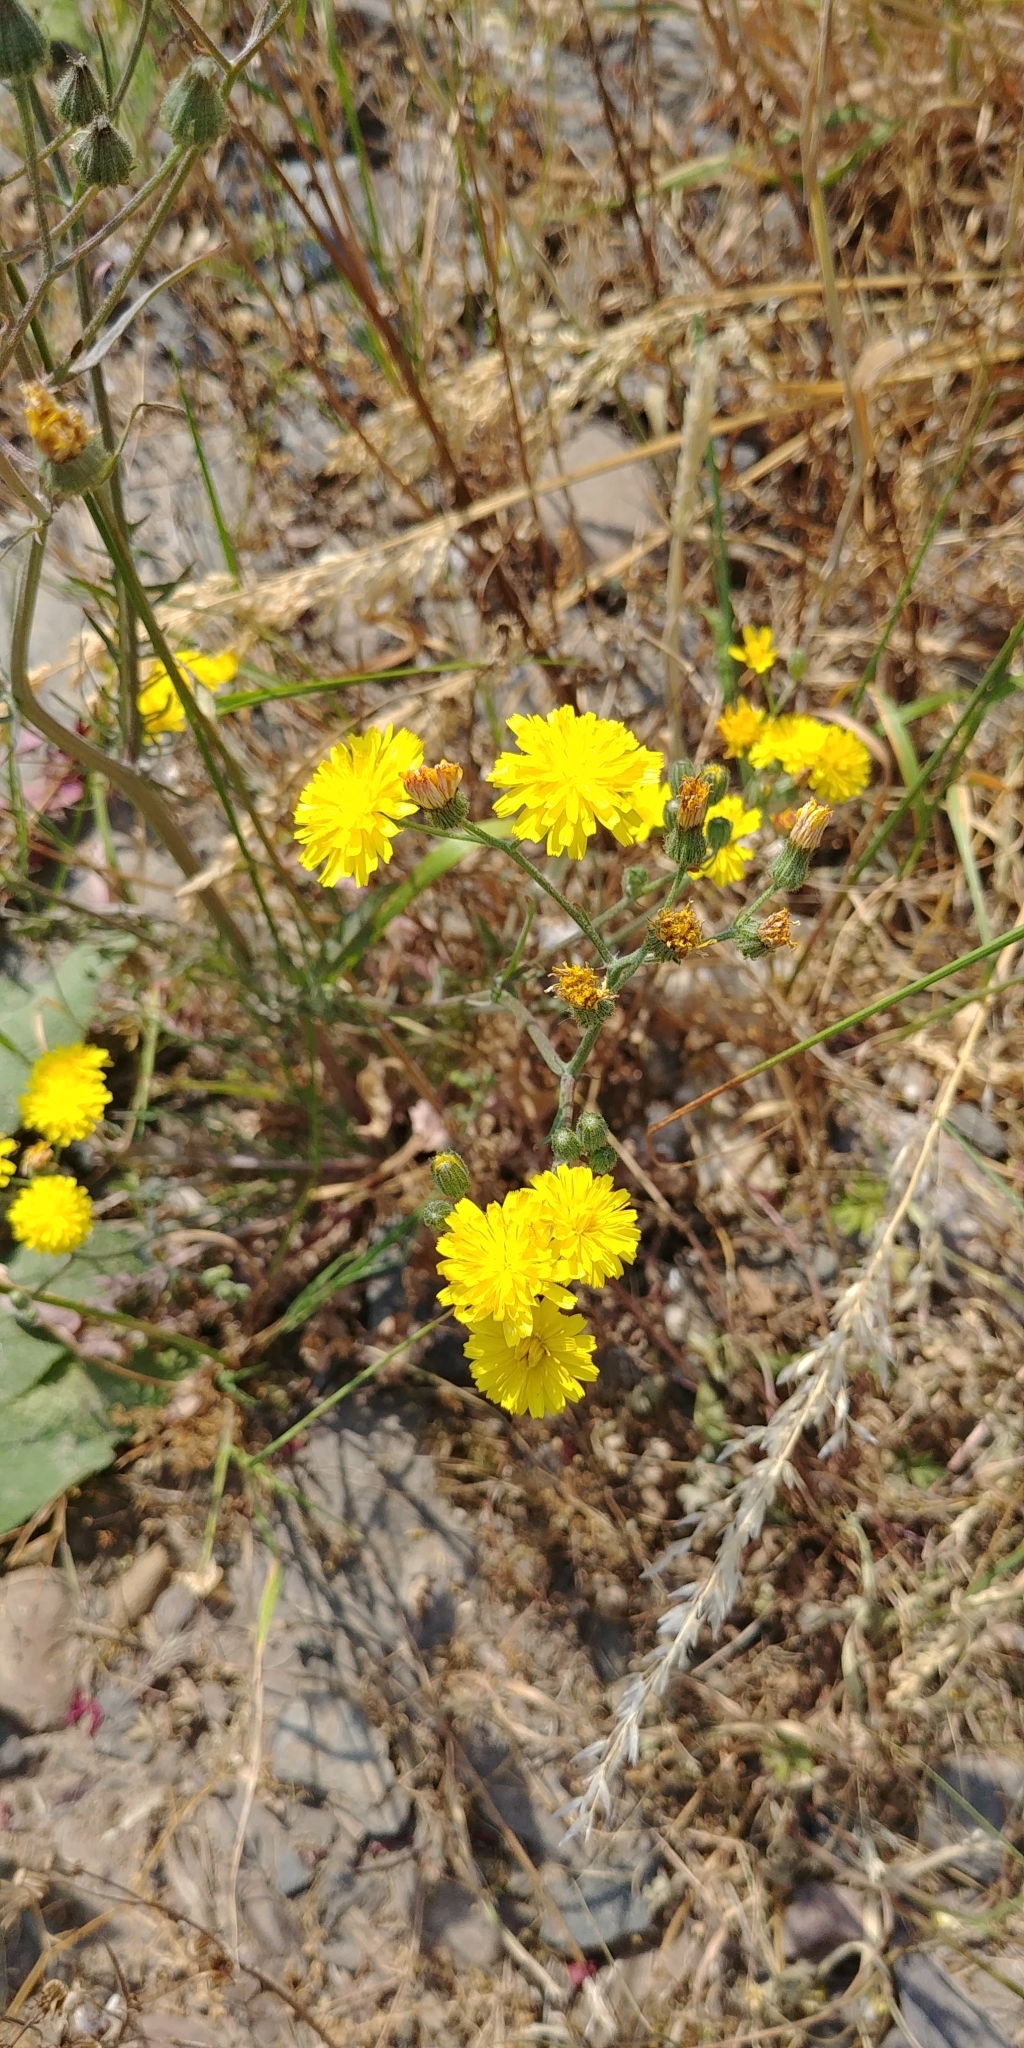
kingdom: Plantae
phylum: Tracheophyta
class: Magnoliopsida
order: Asterales
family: Asteraceae
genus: Crepis
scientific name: Crepis capillaris
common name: Smooth hawksbeard
